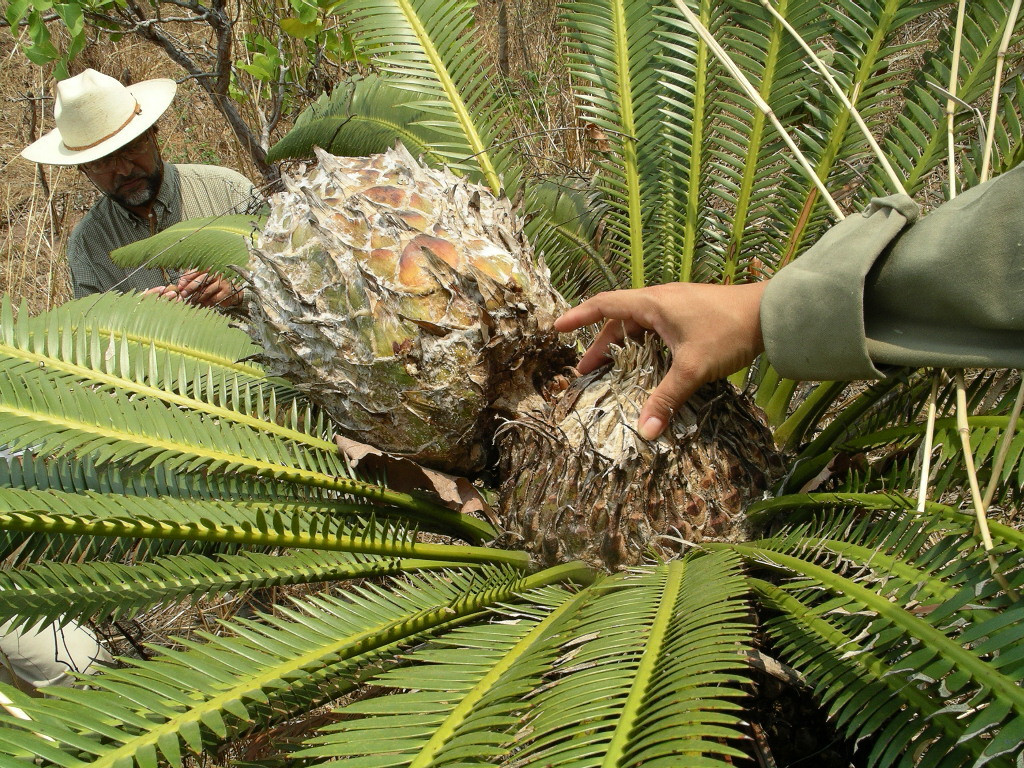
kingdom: Plantae
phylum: Tracheophyta
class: Cycadopsida
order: Cycadales
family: Zamiaceae
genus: Dioon
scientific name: Dioon merolae
